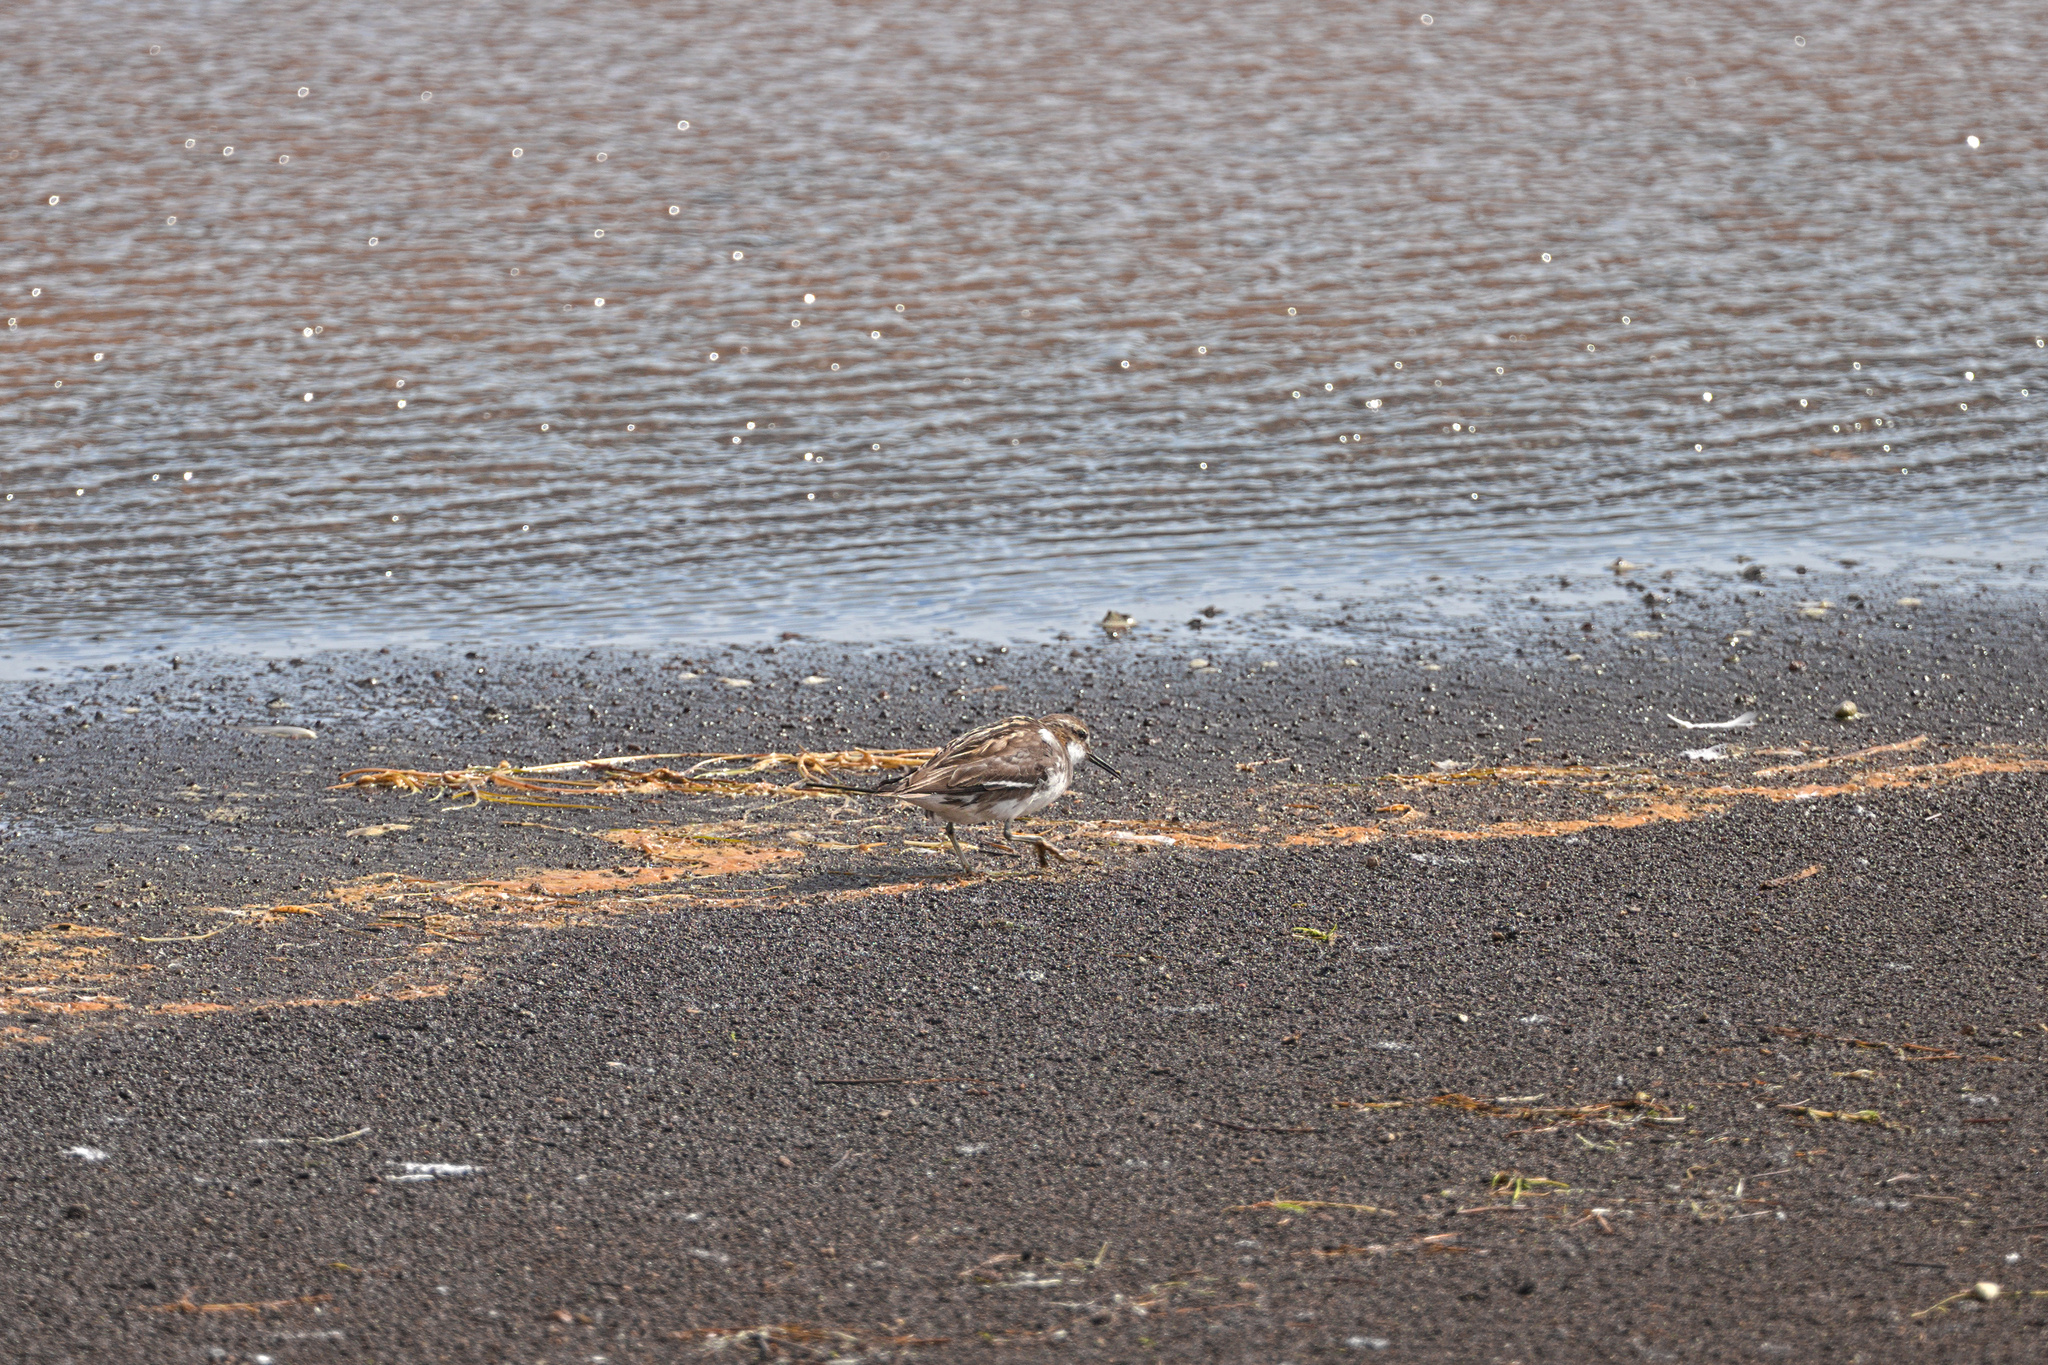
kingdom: Animalia
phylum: Chordata
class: Aves
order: Charadriiformes
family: Scolopacidae
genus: Phalaropus
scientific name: Phalaropus lobatus
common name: Red-necked phalarope
